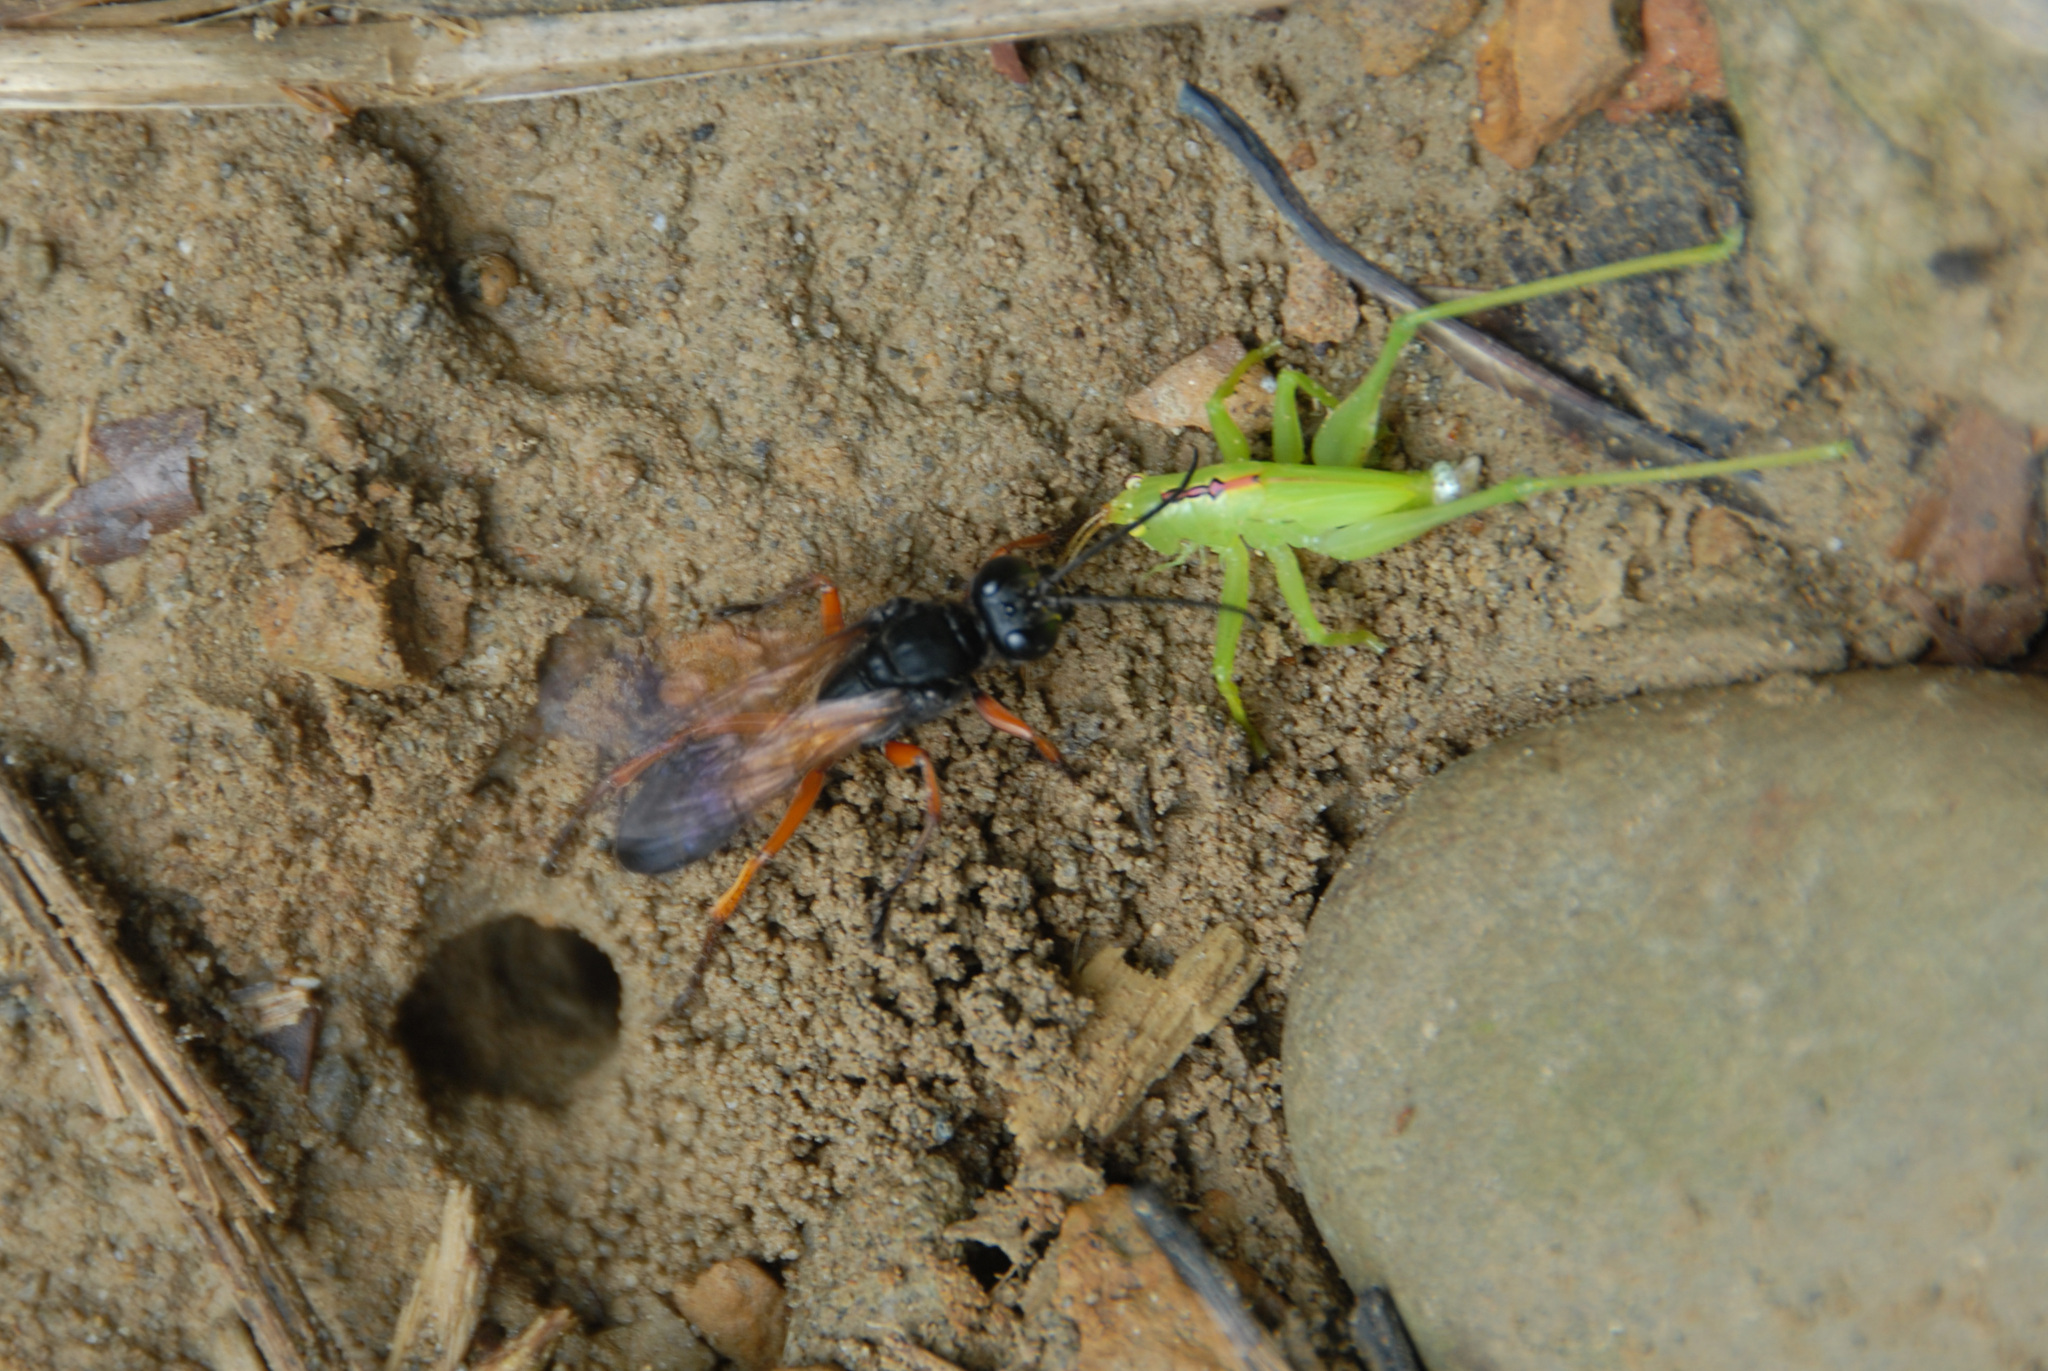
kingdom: Animalia
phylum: Arthropoda
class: Insecta
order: Hymenoptera
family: Sphecidae
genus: Sphex
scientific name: Sphex subtruncatus
